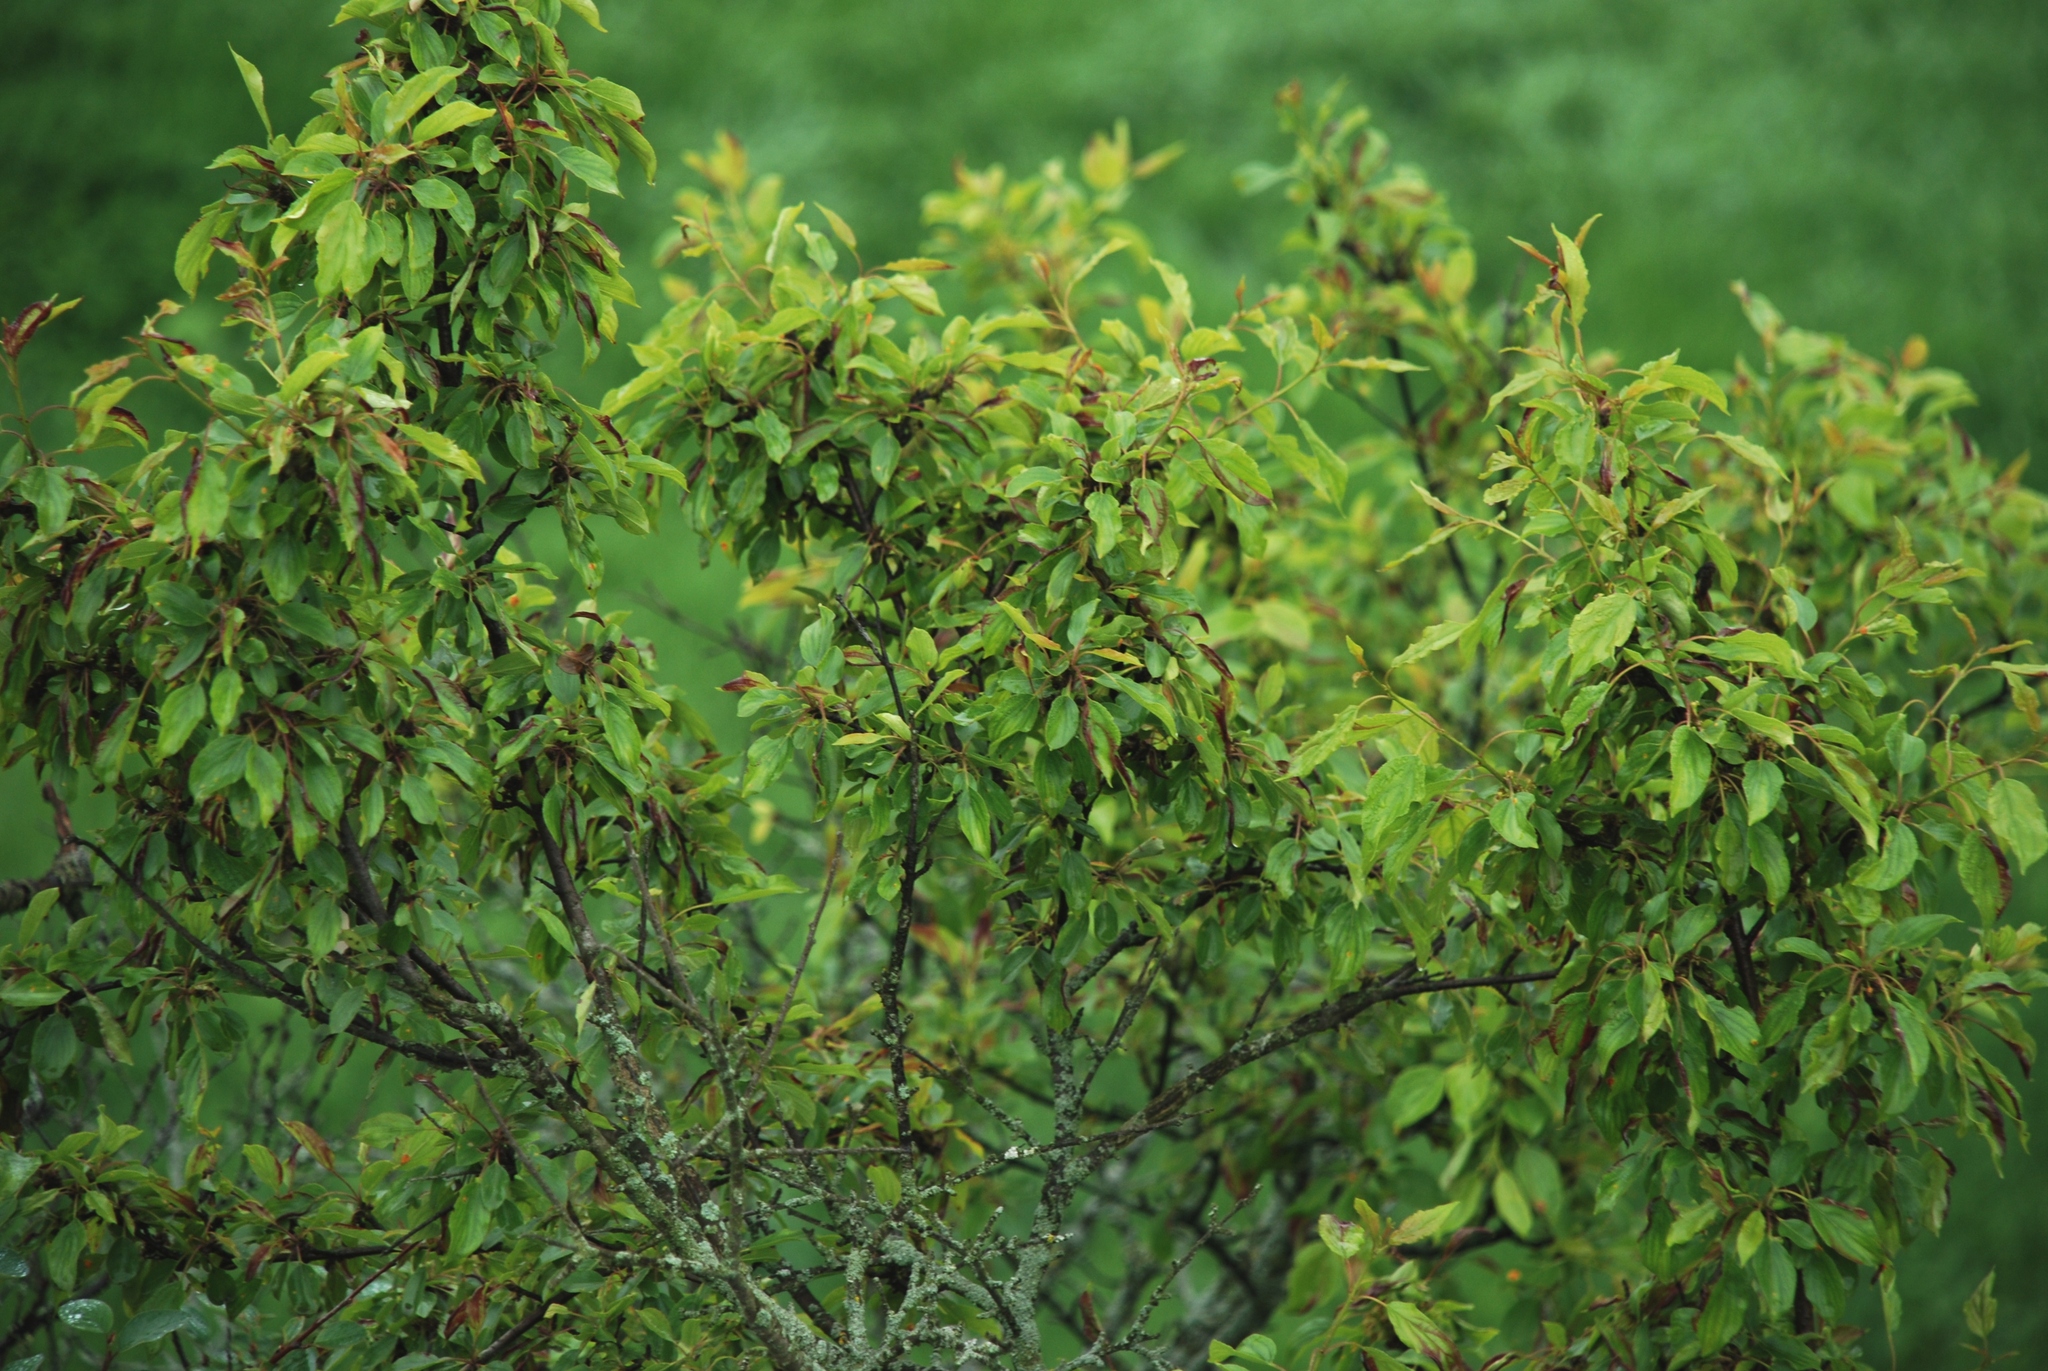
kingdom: Plantae
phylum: Tracheophyta
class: Magnoliopsida
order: Rosales
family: Rhamnaceae
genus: Rhamnus
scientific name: Rhamnus cathartica
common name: Common buckthorn
